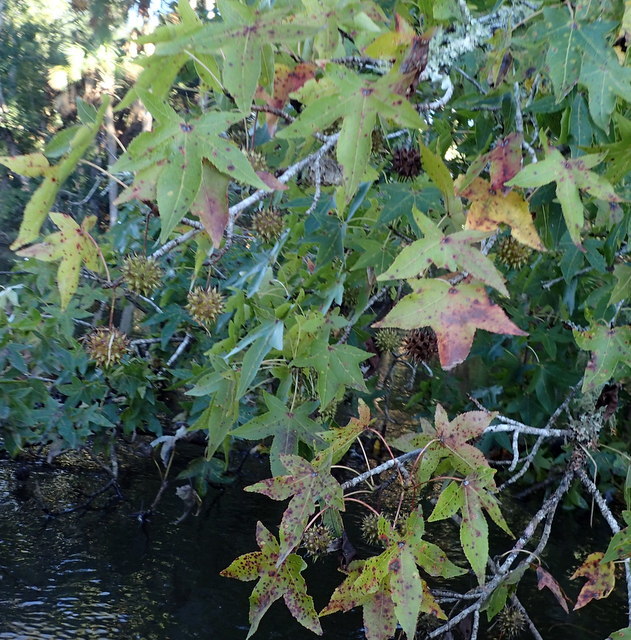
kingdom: Plantae
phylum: Tracheophyta
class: Magnoliopsida
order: Saxifragales
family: Altingiaceae
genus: Liquidambar
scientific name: Liquidambar styraciflua
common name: Sweet gum
